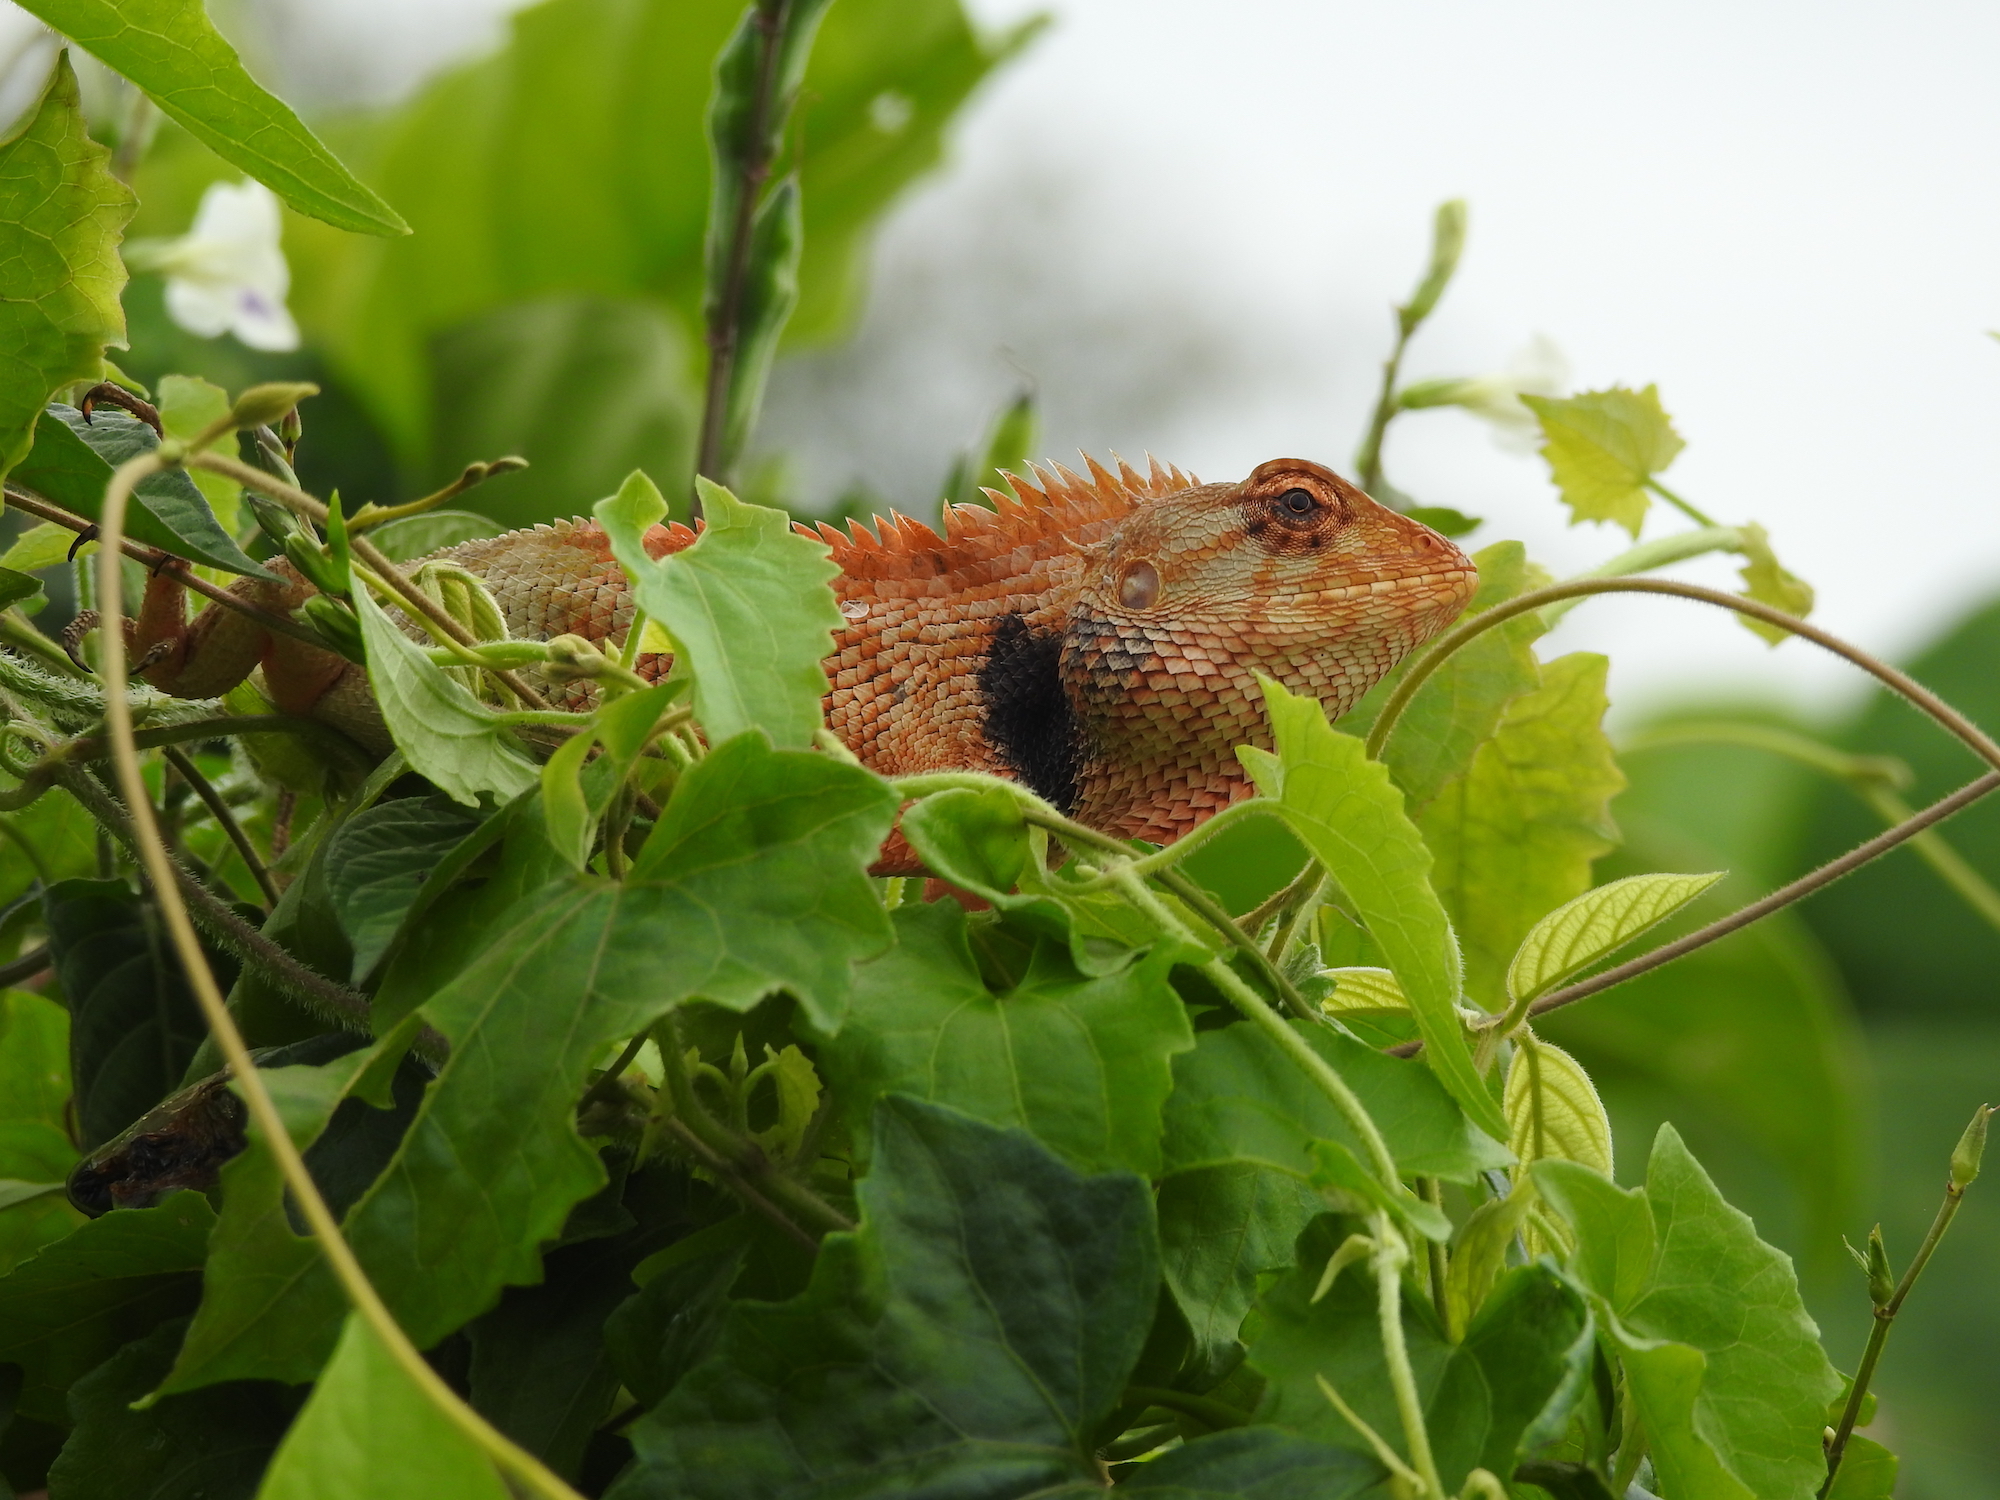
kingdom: Animalia
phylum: Chordata
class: Squamata
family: Agamidae
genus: Calotes
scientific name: Calotes versicolor
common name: Oriental garden lizard
